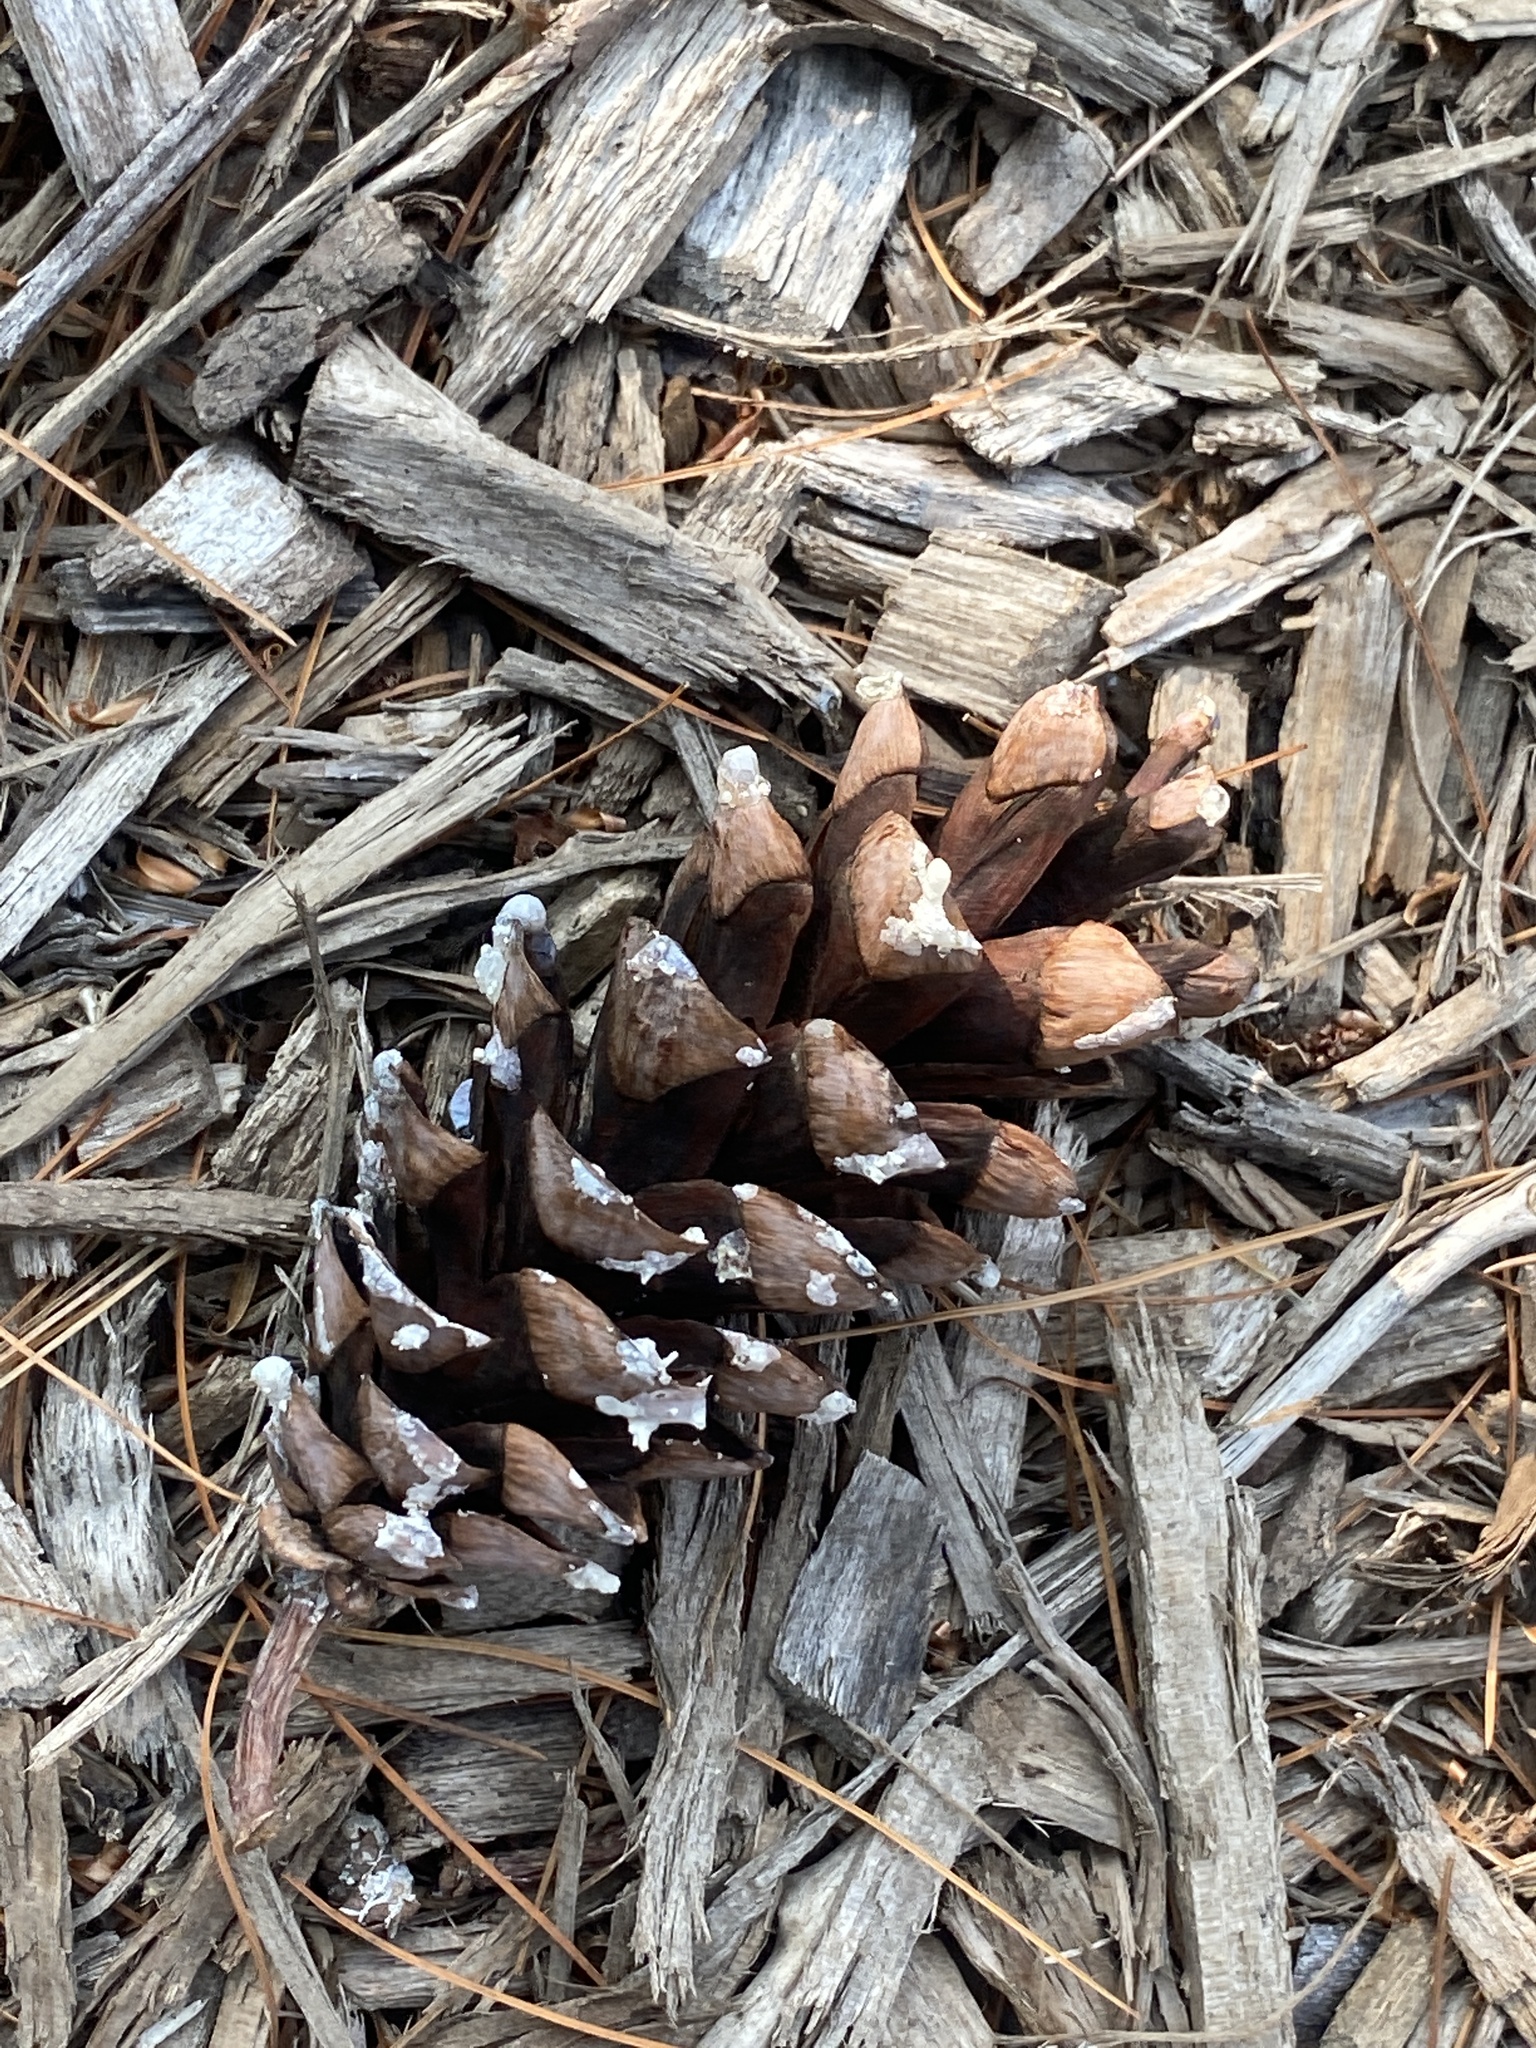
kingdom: Plantae
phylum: Tracheophyta
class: Pinopsida
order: Pinales
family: Pinaceae
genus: Pinus
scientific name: Pinus strobus
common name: Weymouth pine
